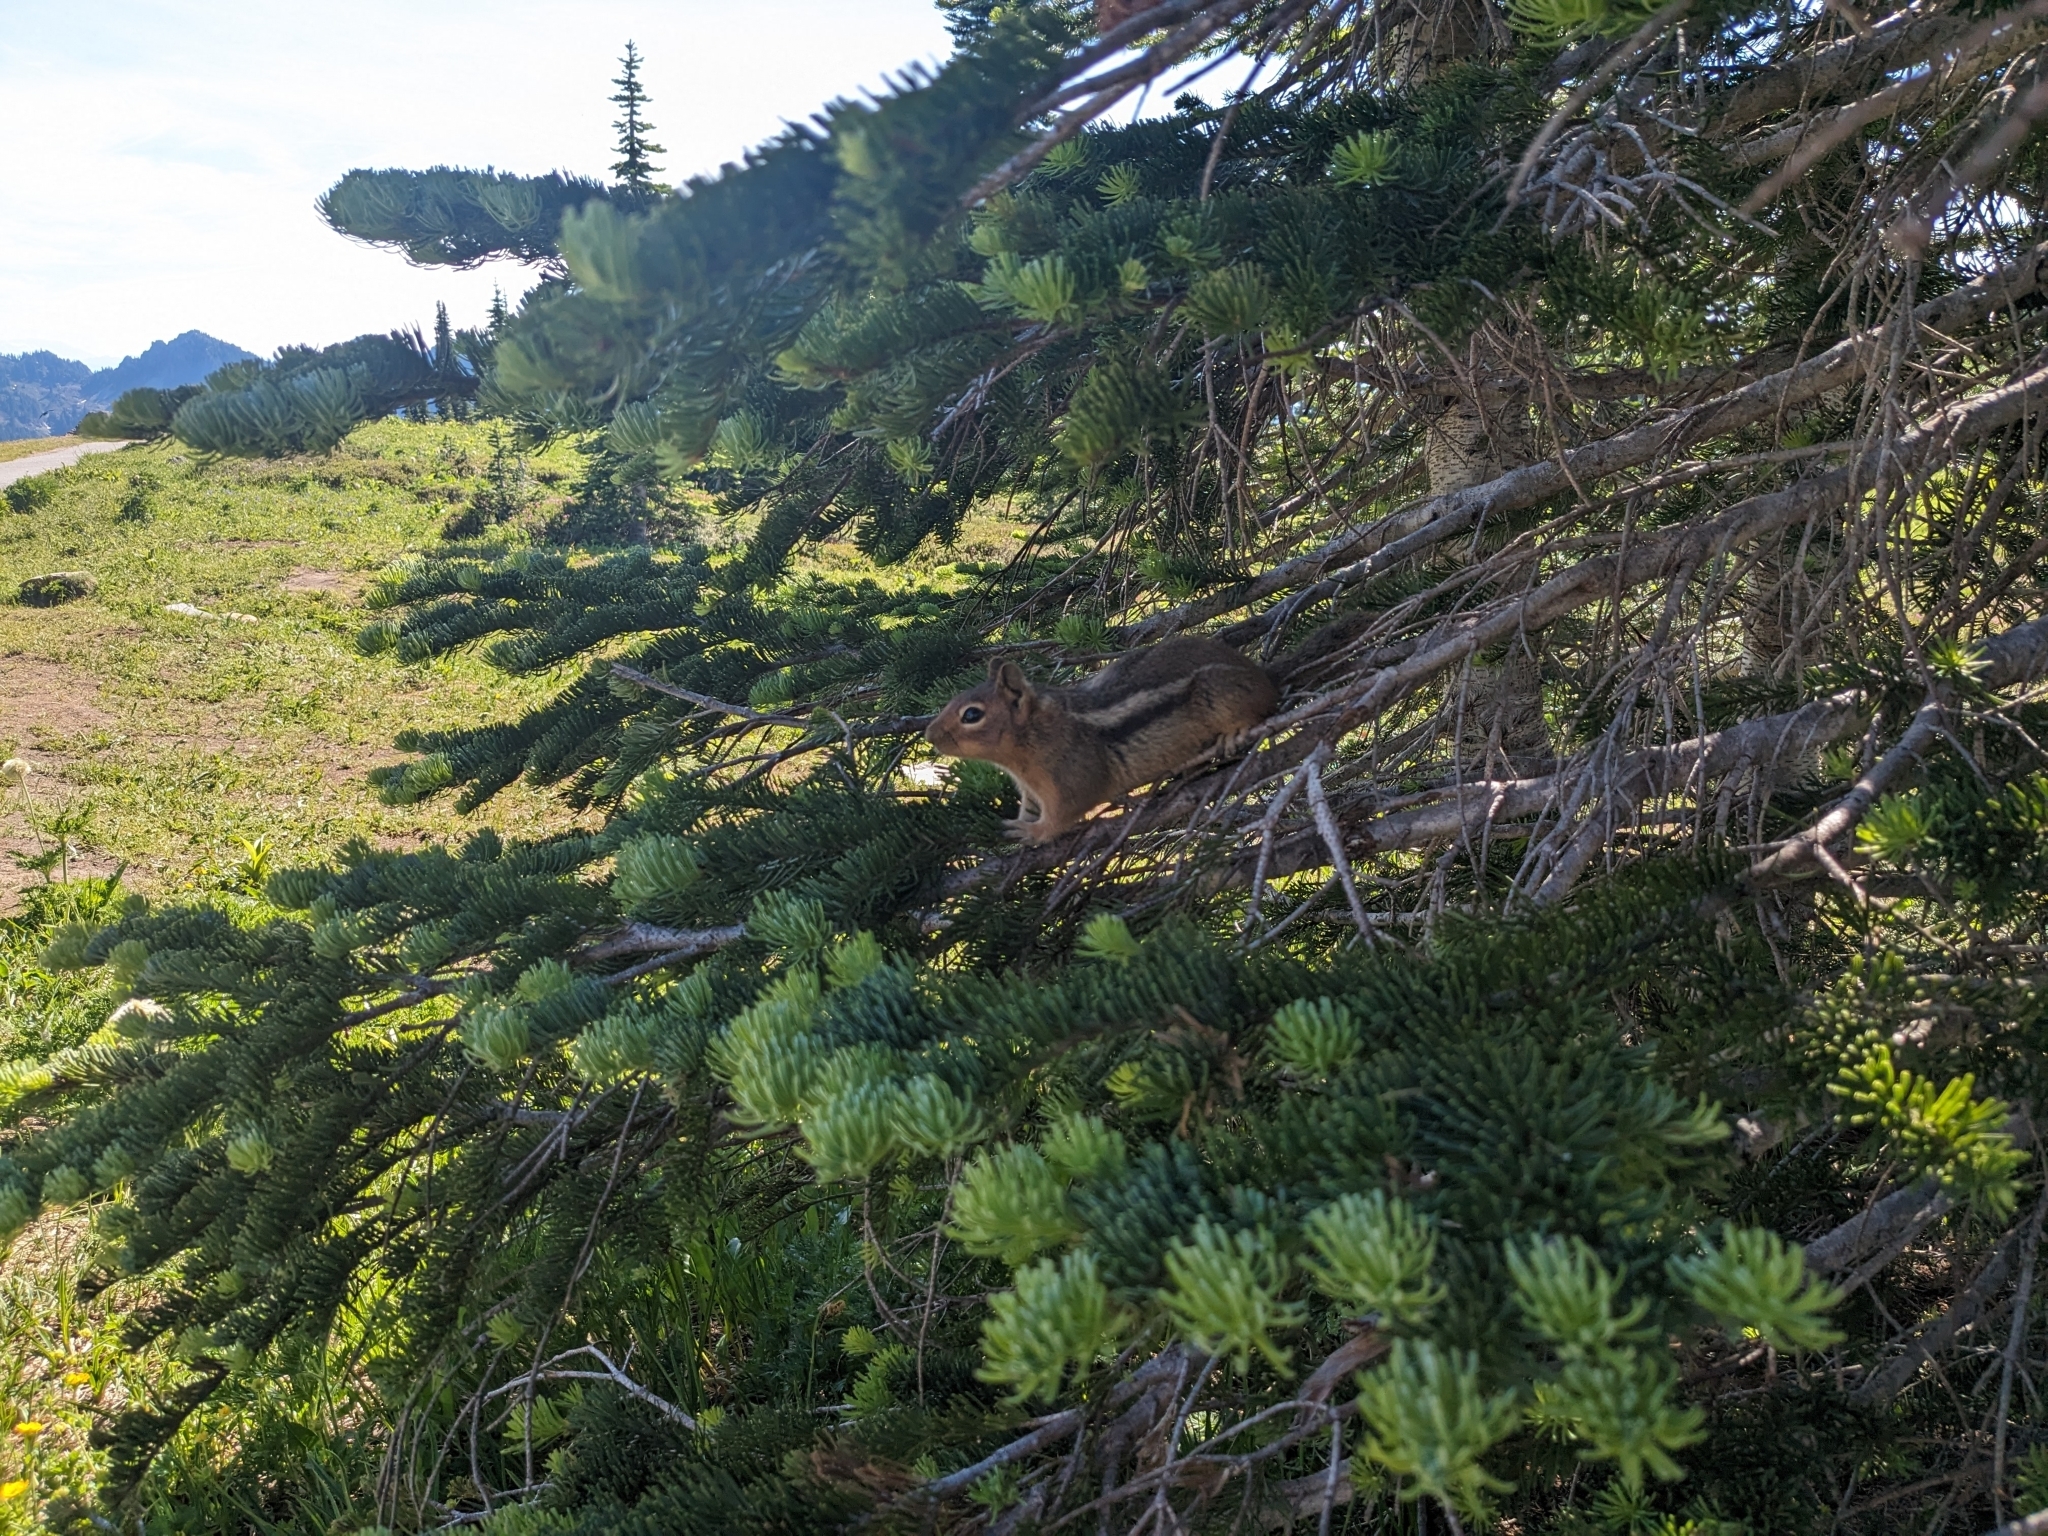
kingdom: Animalia
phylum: Chordata
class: Mammalia
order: Rodentia
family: Sciuridae
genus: Callospermophilus
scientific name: Callospermophilus saturatus
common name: Cascade golden-mantled ground squirrel
